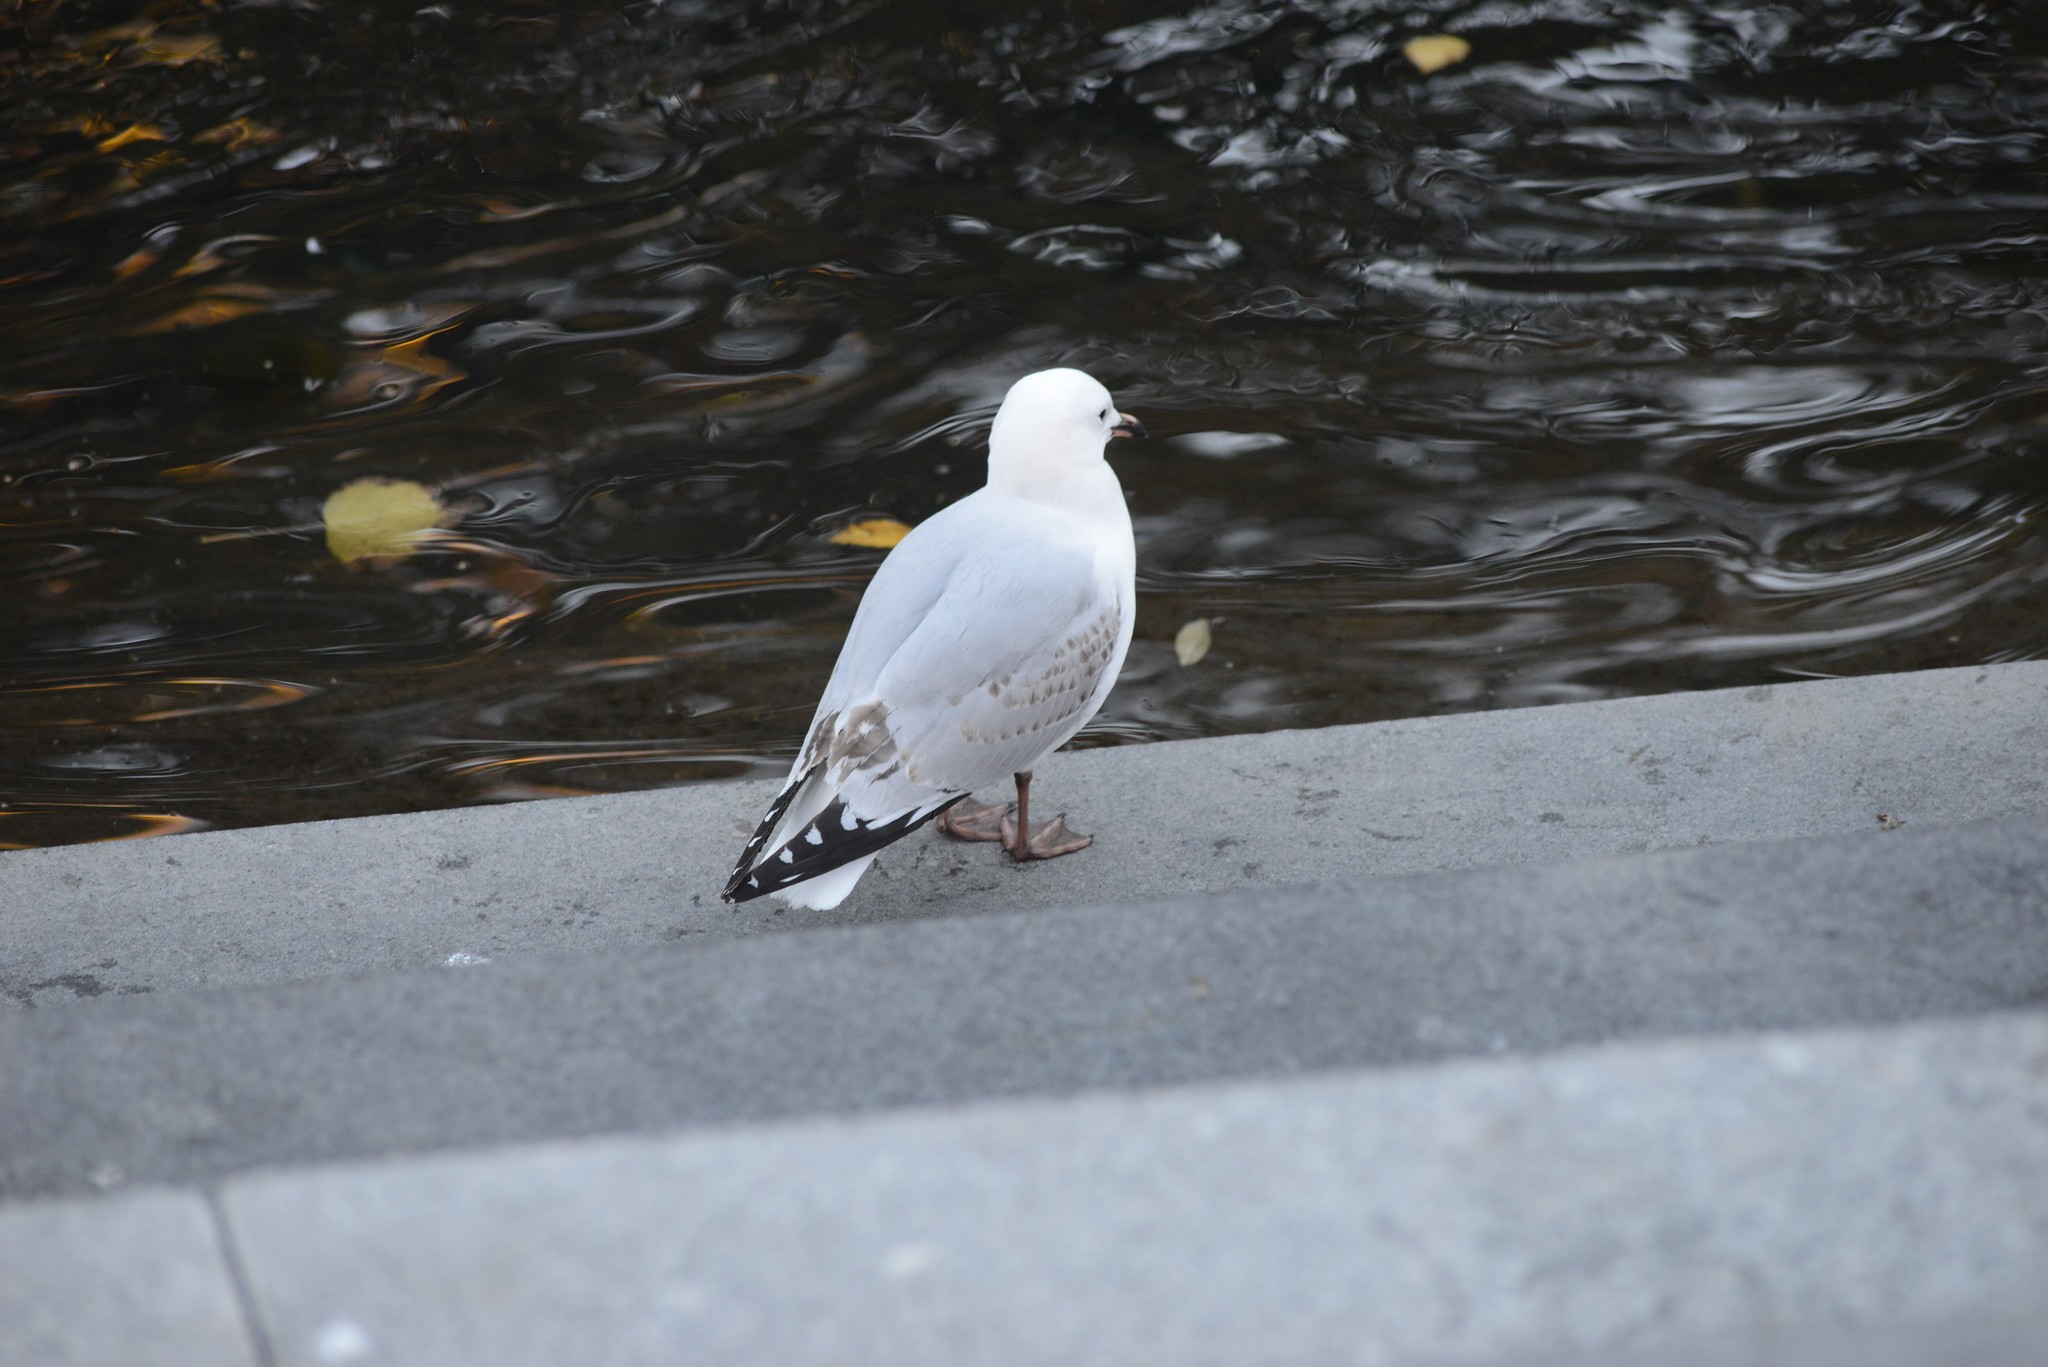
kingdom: Animalia
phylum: Chordata
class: Aves
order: Charadriiformes
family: Laridae
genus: Chroicocephalus
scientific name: Chroicocephalus novaehollandiae
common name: Silver gull
